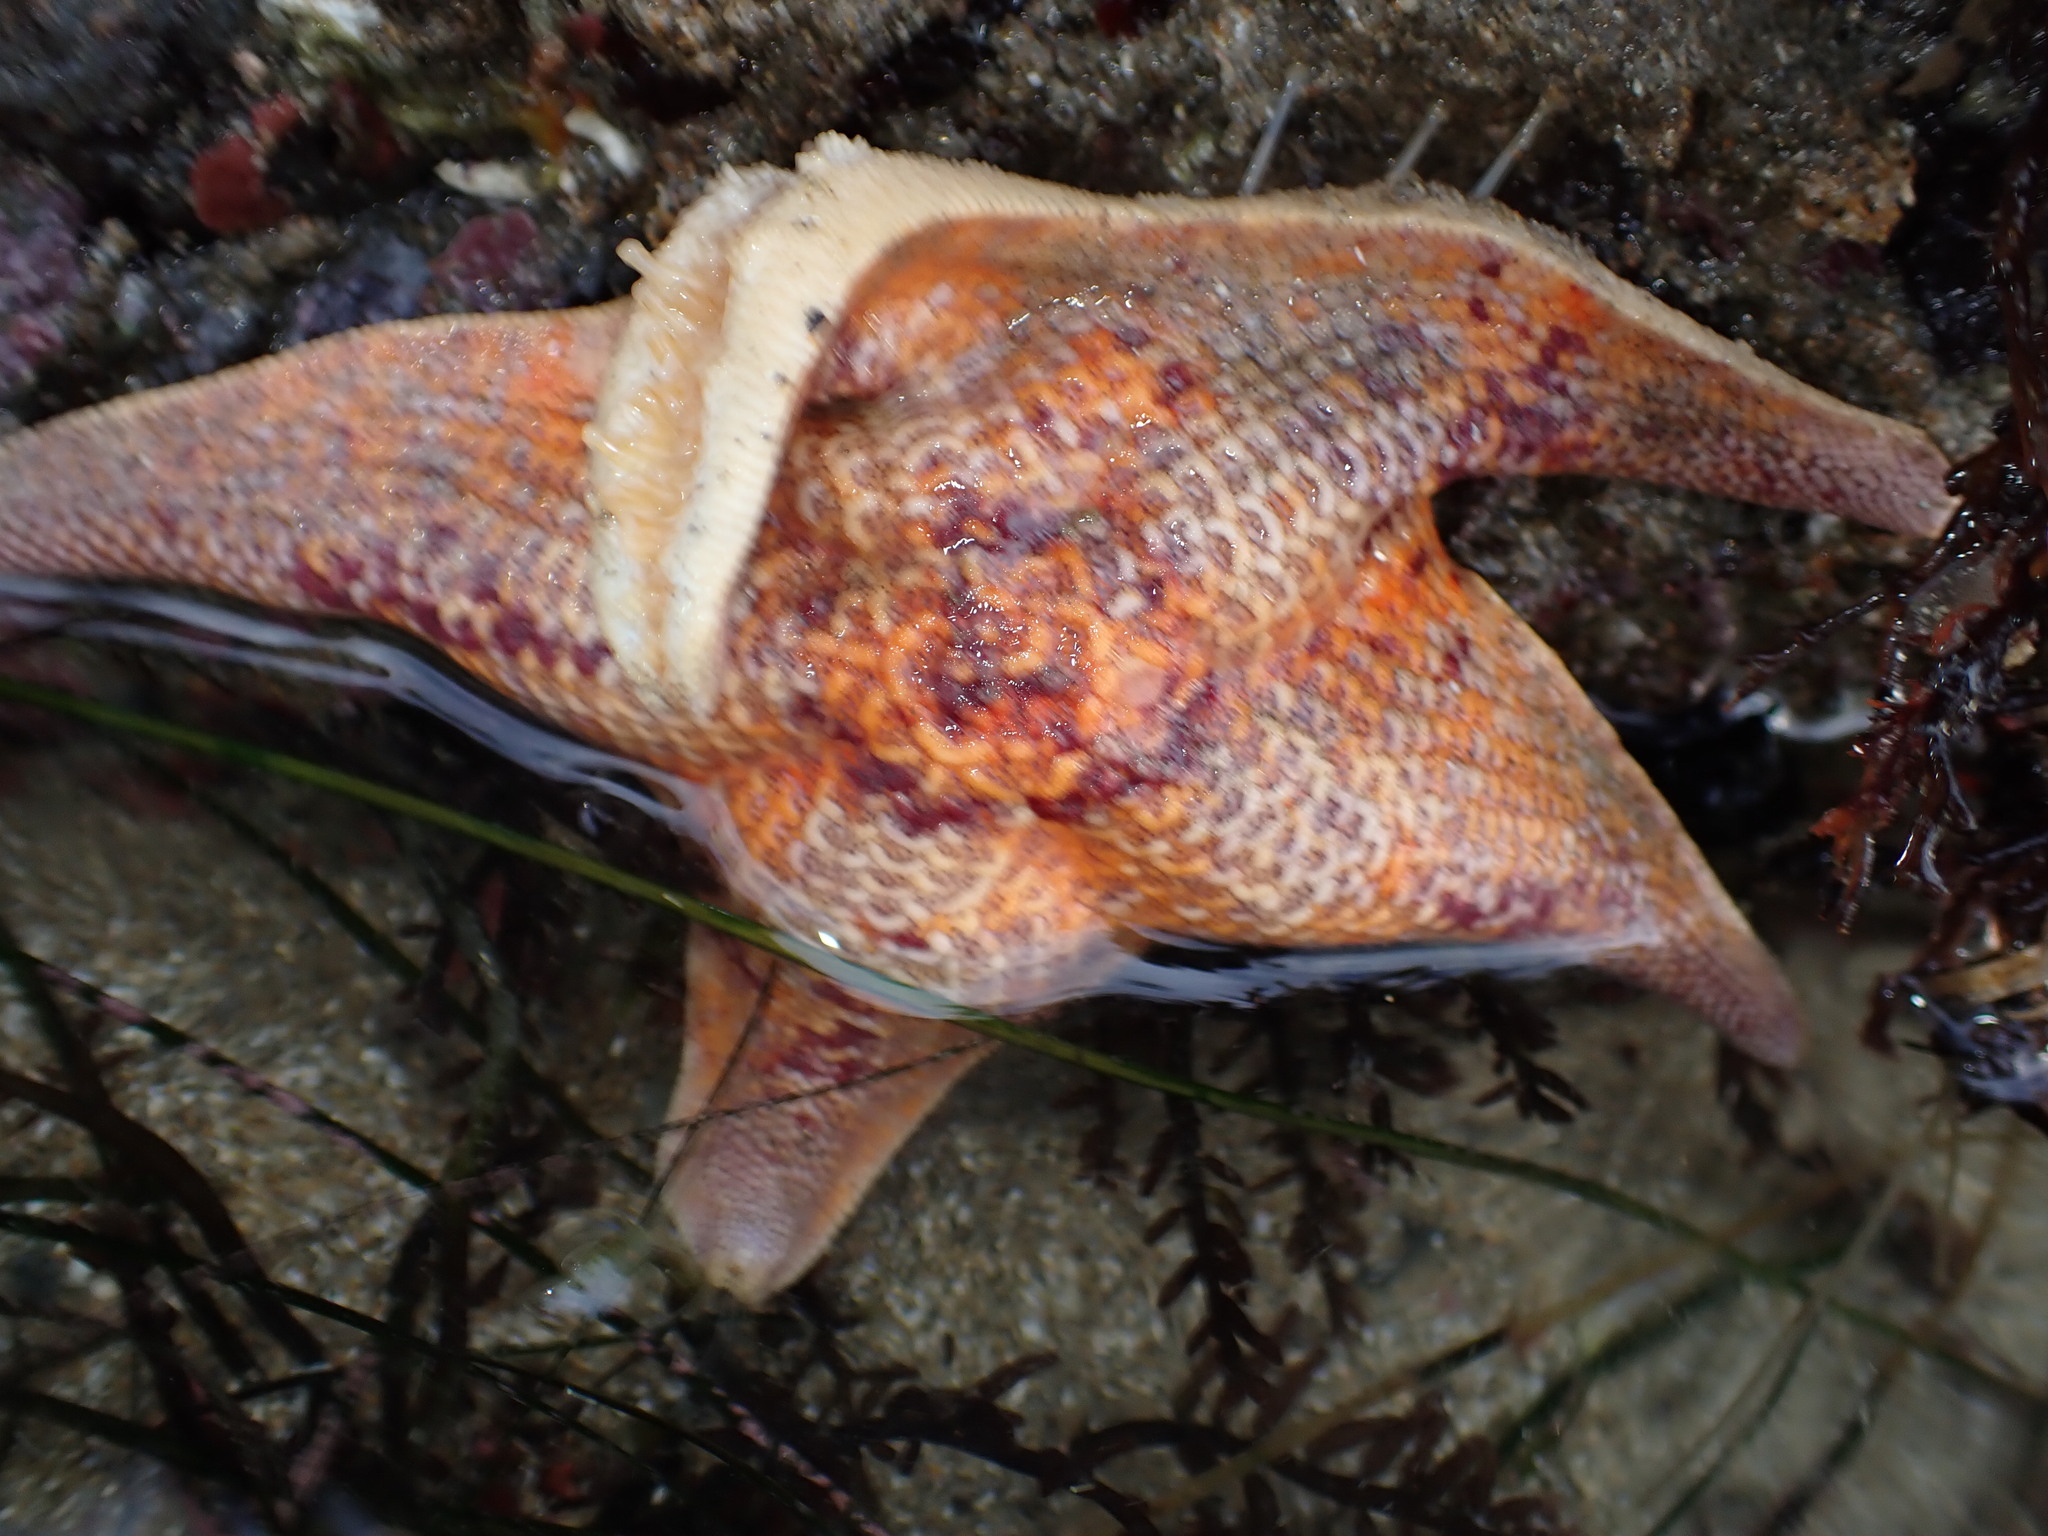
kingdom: Animalia
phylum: Echinodermata
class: Asteroidea
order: Valvatida
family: Asterinidae
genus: Patiria
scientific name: Patiria miniata
